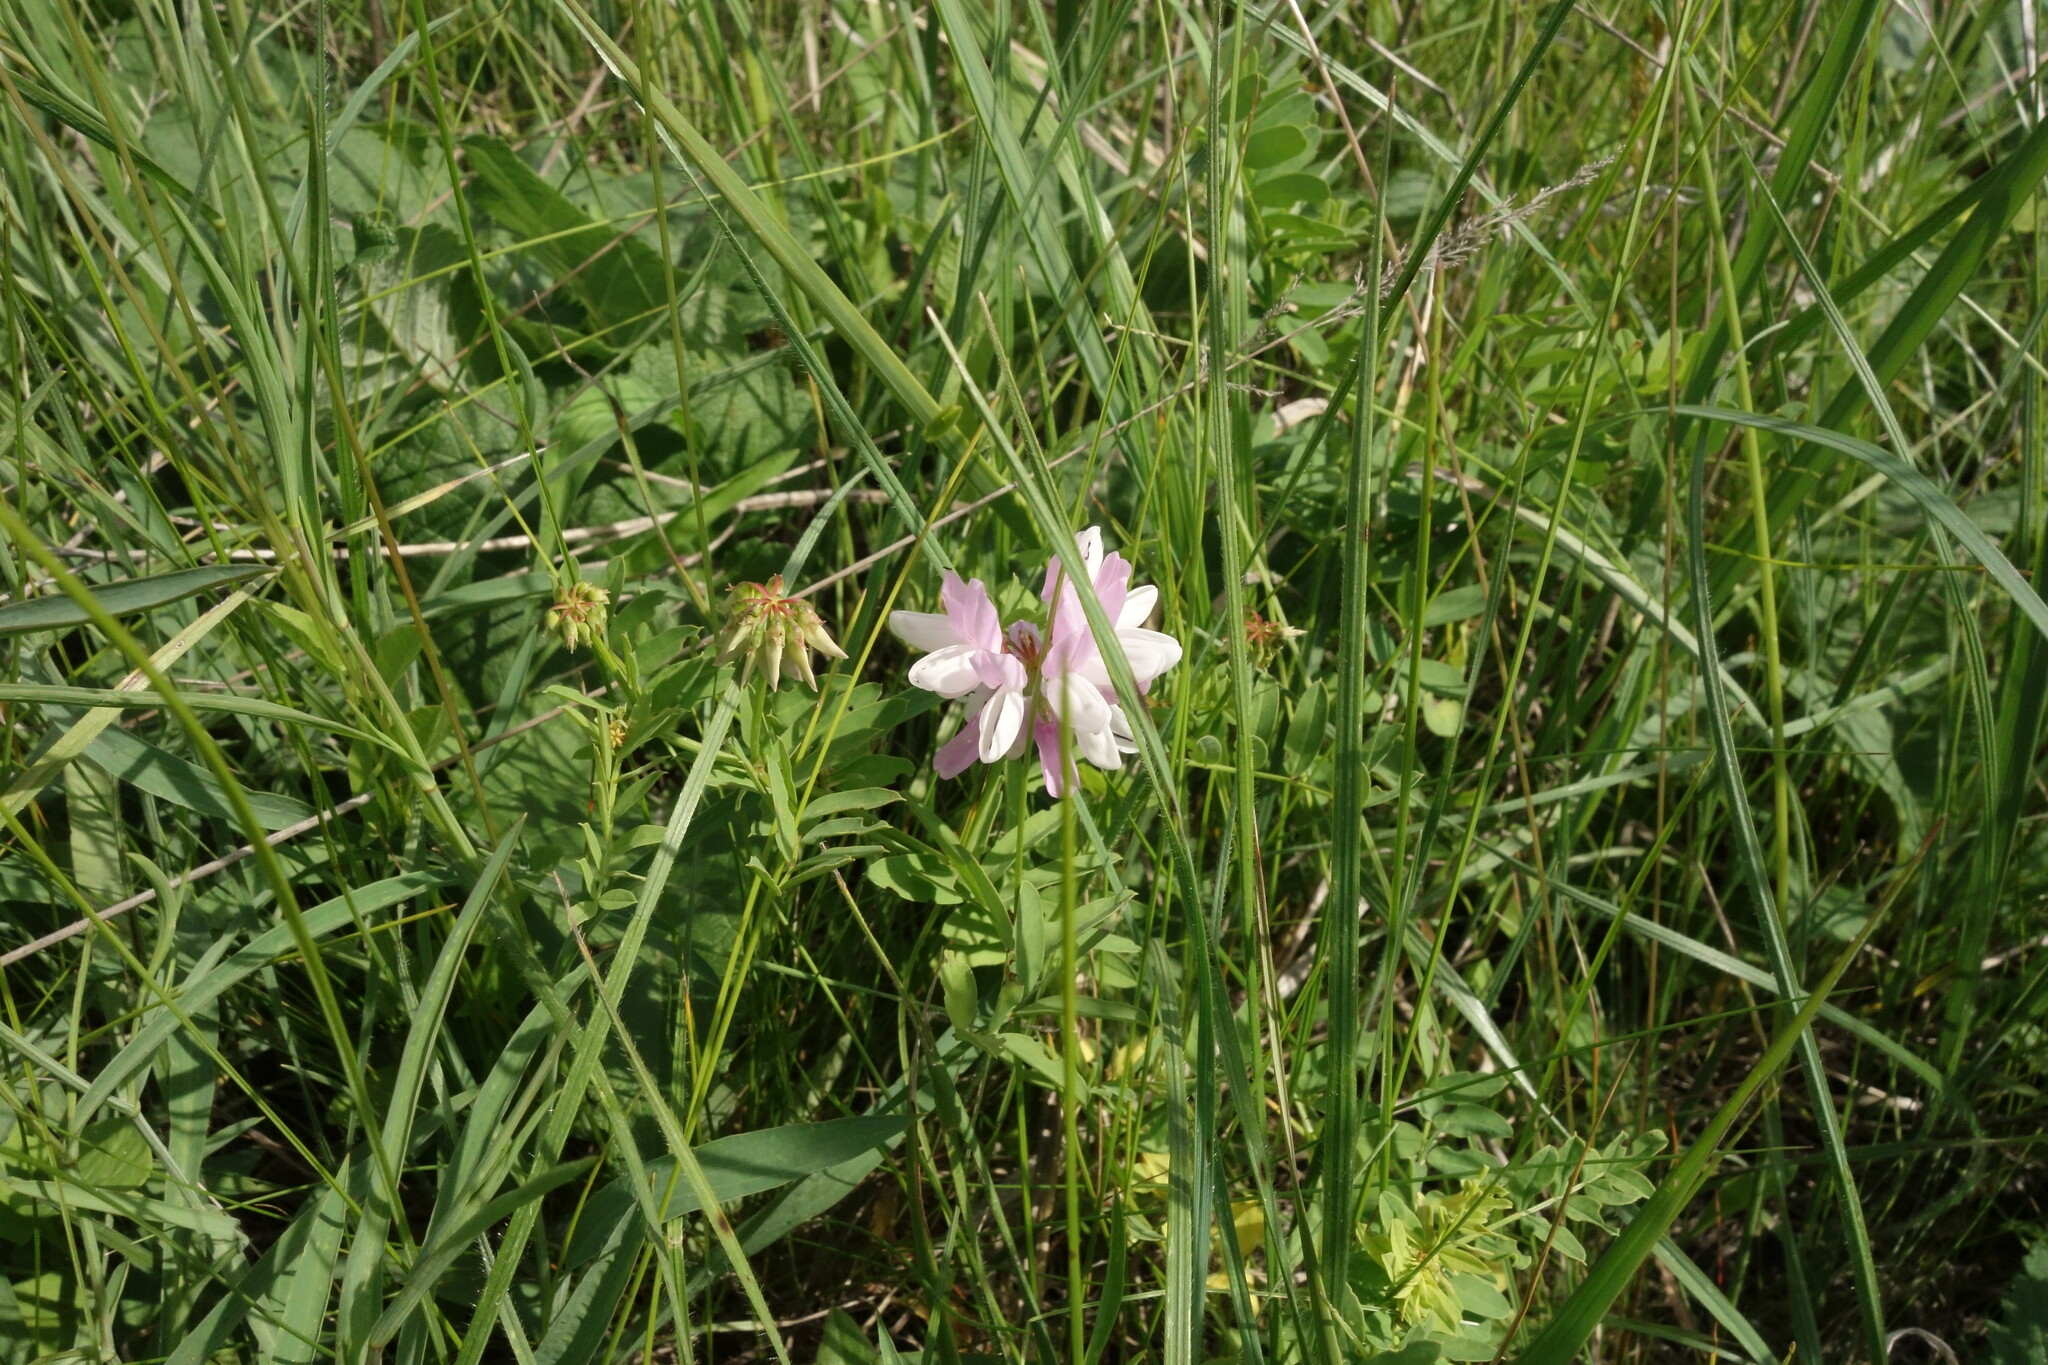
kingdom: Plantae
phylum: Tracheophyta
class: Magnoliopsida
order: Fabales
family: Fabaceae
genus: Coronilla
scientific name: Coronilla varia
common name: Crownvetch
